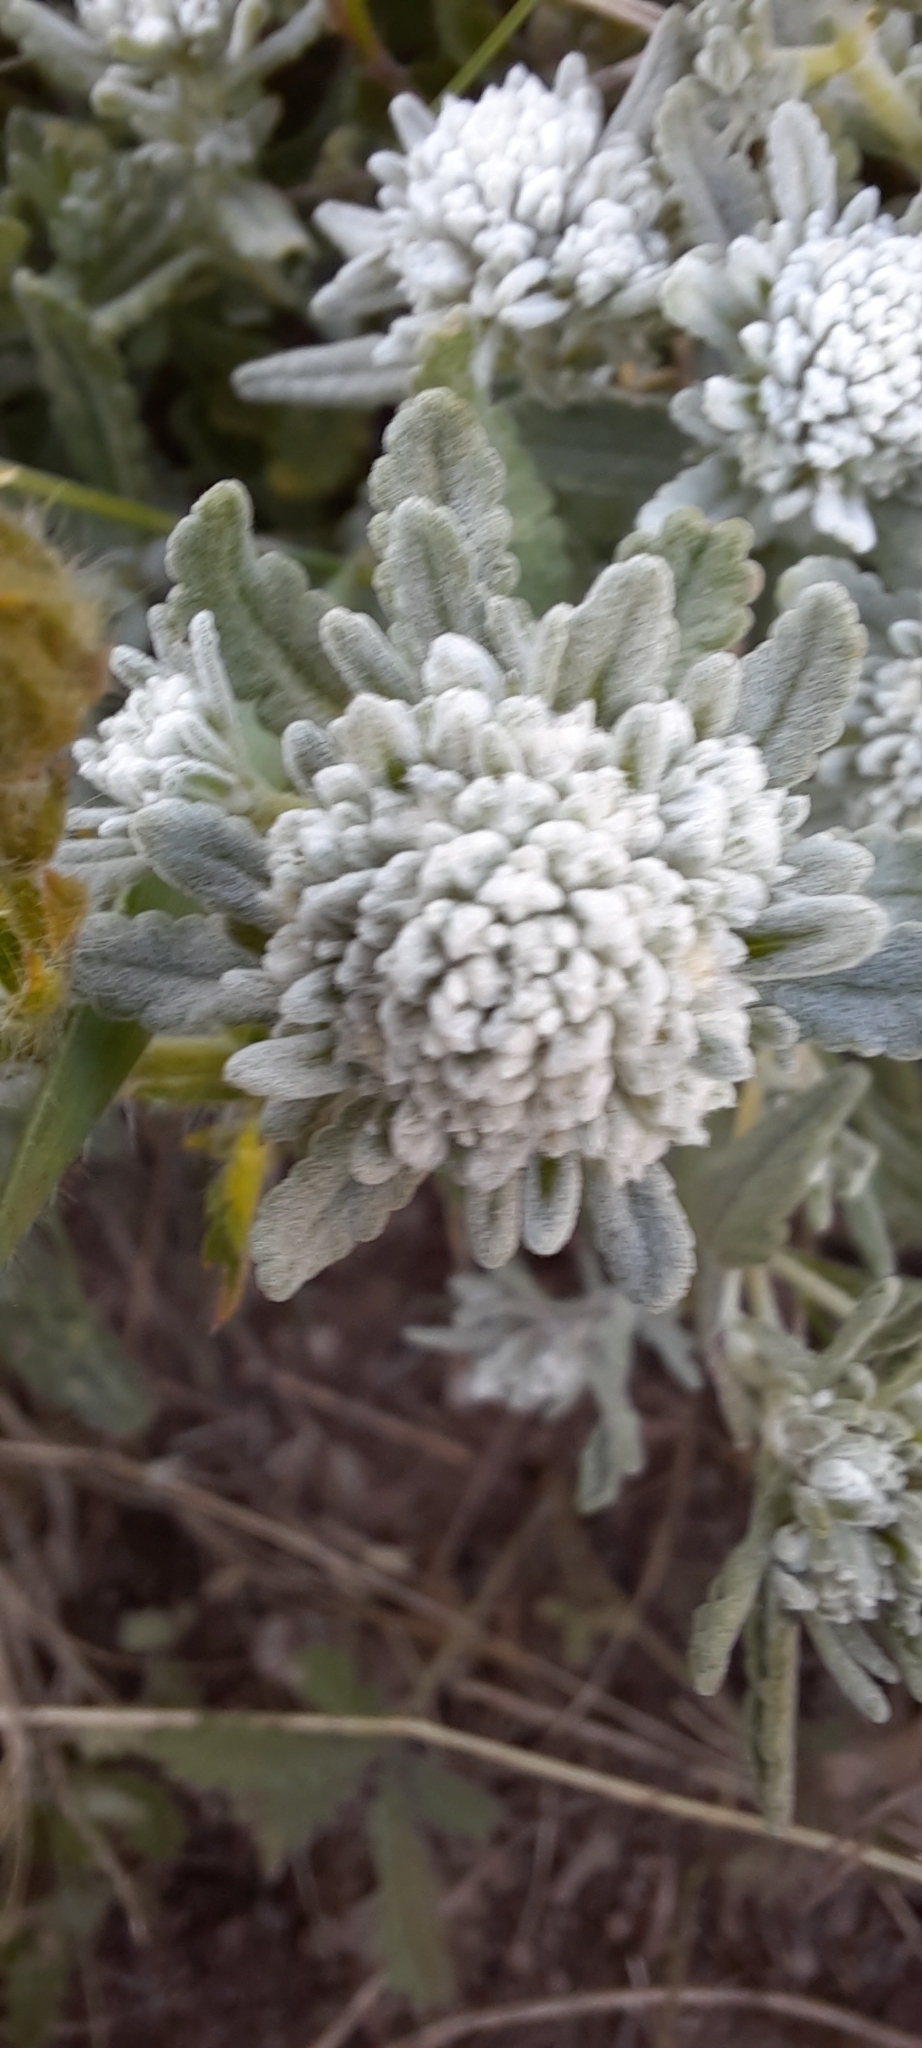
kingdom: Plantae
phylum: Tracheophyta
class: Magnoliopsida
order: Lamiales
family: Lamiaceae
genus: Teucrium
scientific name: Teucrium polium
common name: Poley
